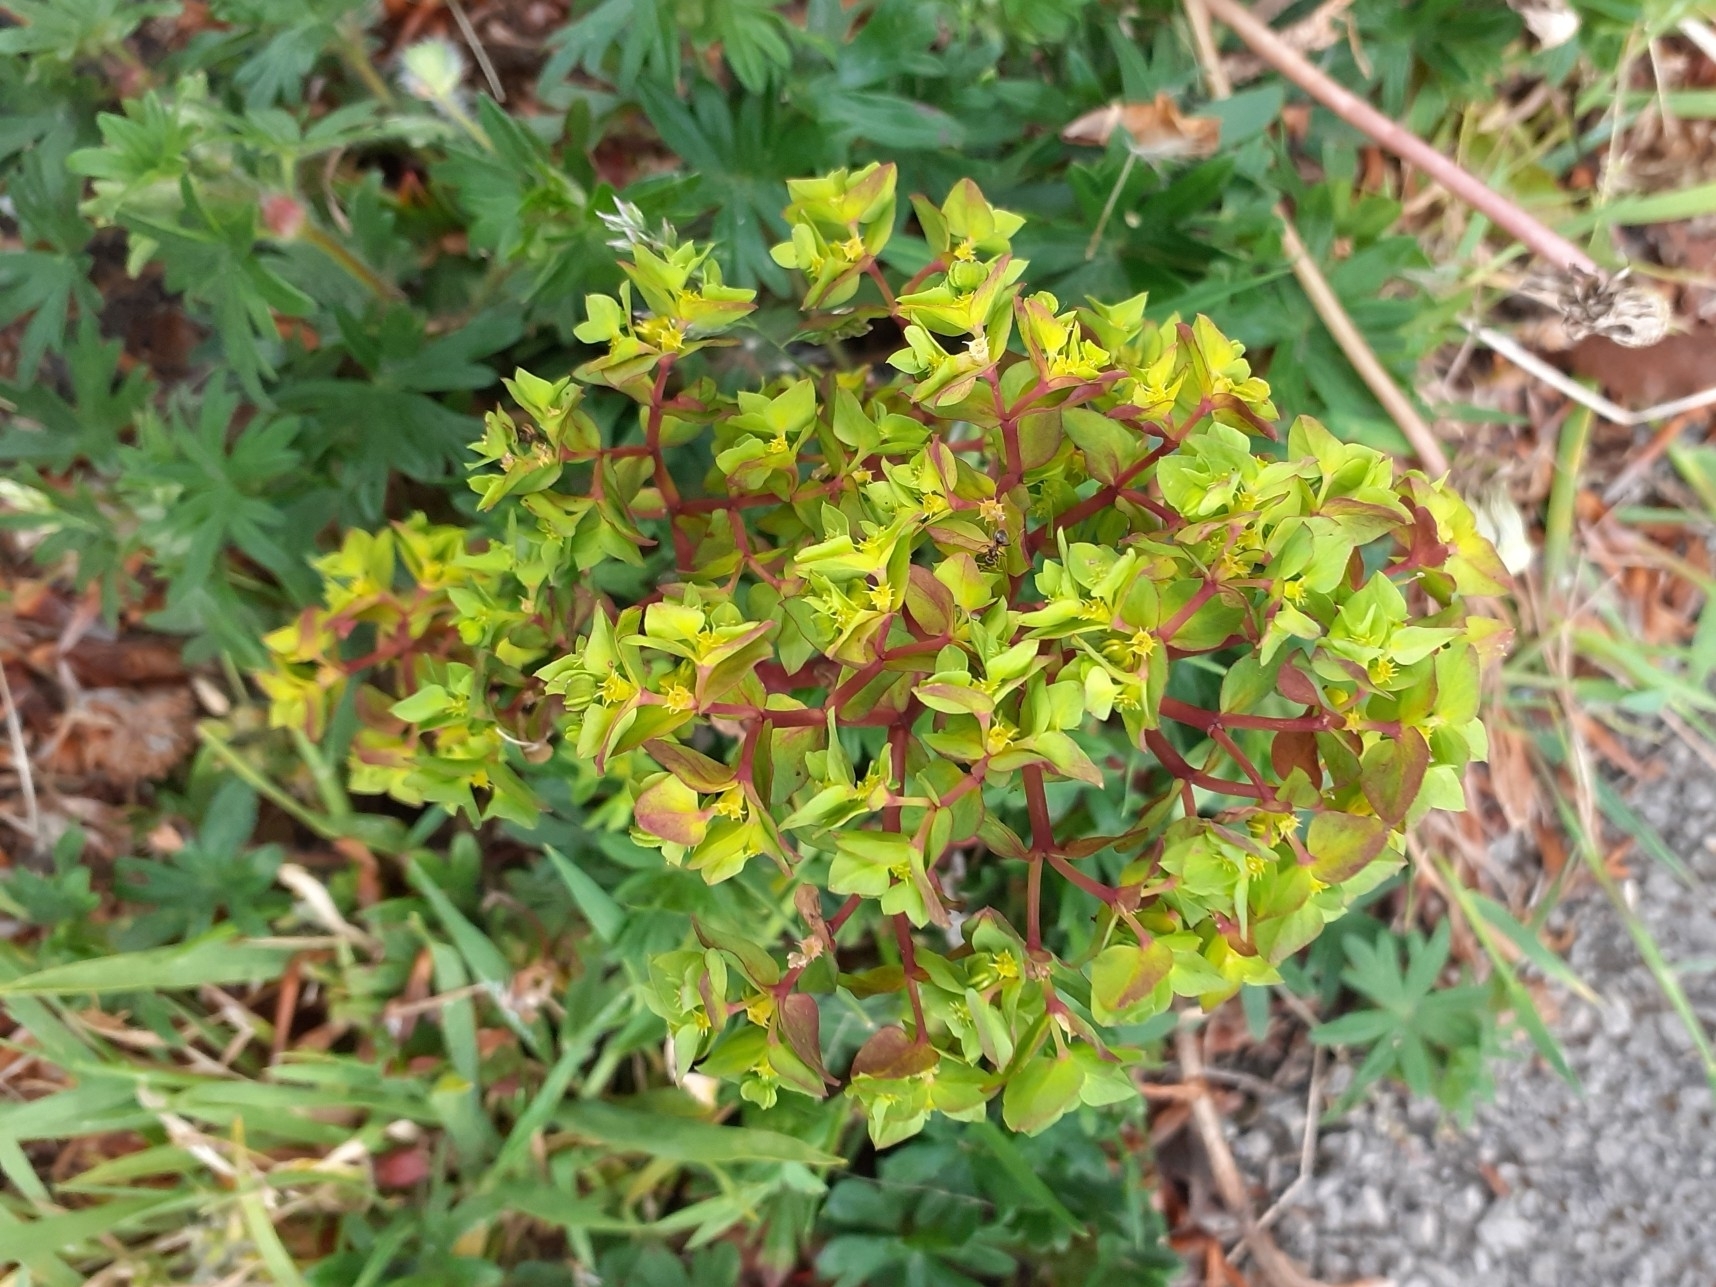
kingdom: Plantae
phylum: Tracheophyta
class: Magnoliopsida
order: Malpighiales
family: Euphorbiaceae
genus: Euphorbia
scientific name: Euphorbia peplus
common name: Petty spurge
